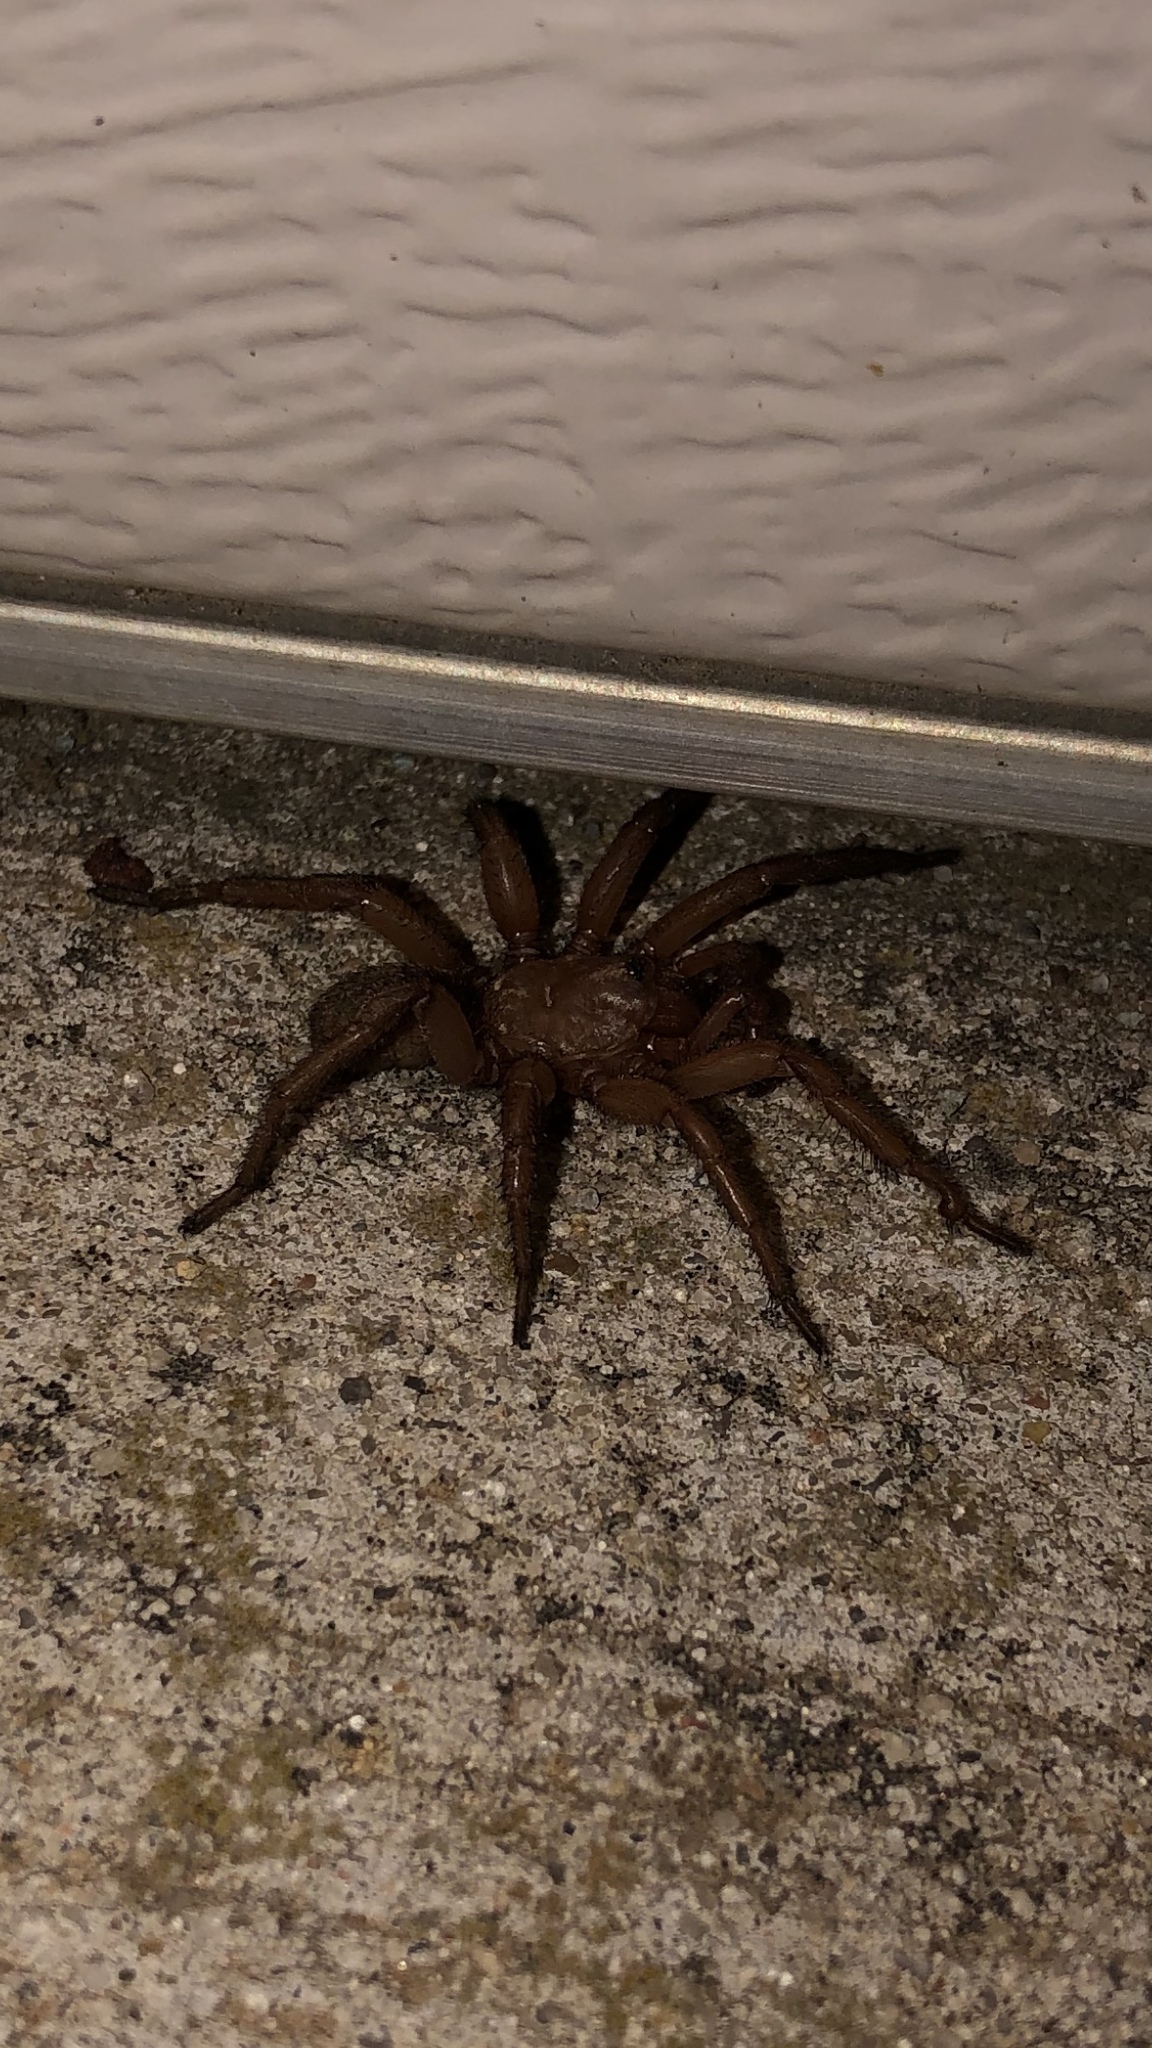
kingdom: Animalia
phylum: Arthropoda
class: Arachnida
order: Araneae
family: Euctenizidae
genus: Myrmekiaphila
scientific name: Myrmekiaphila comstocki
